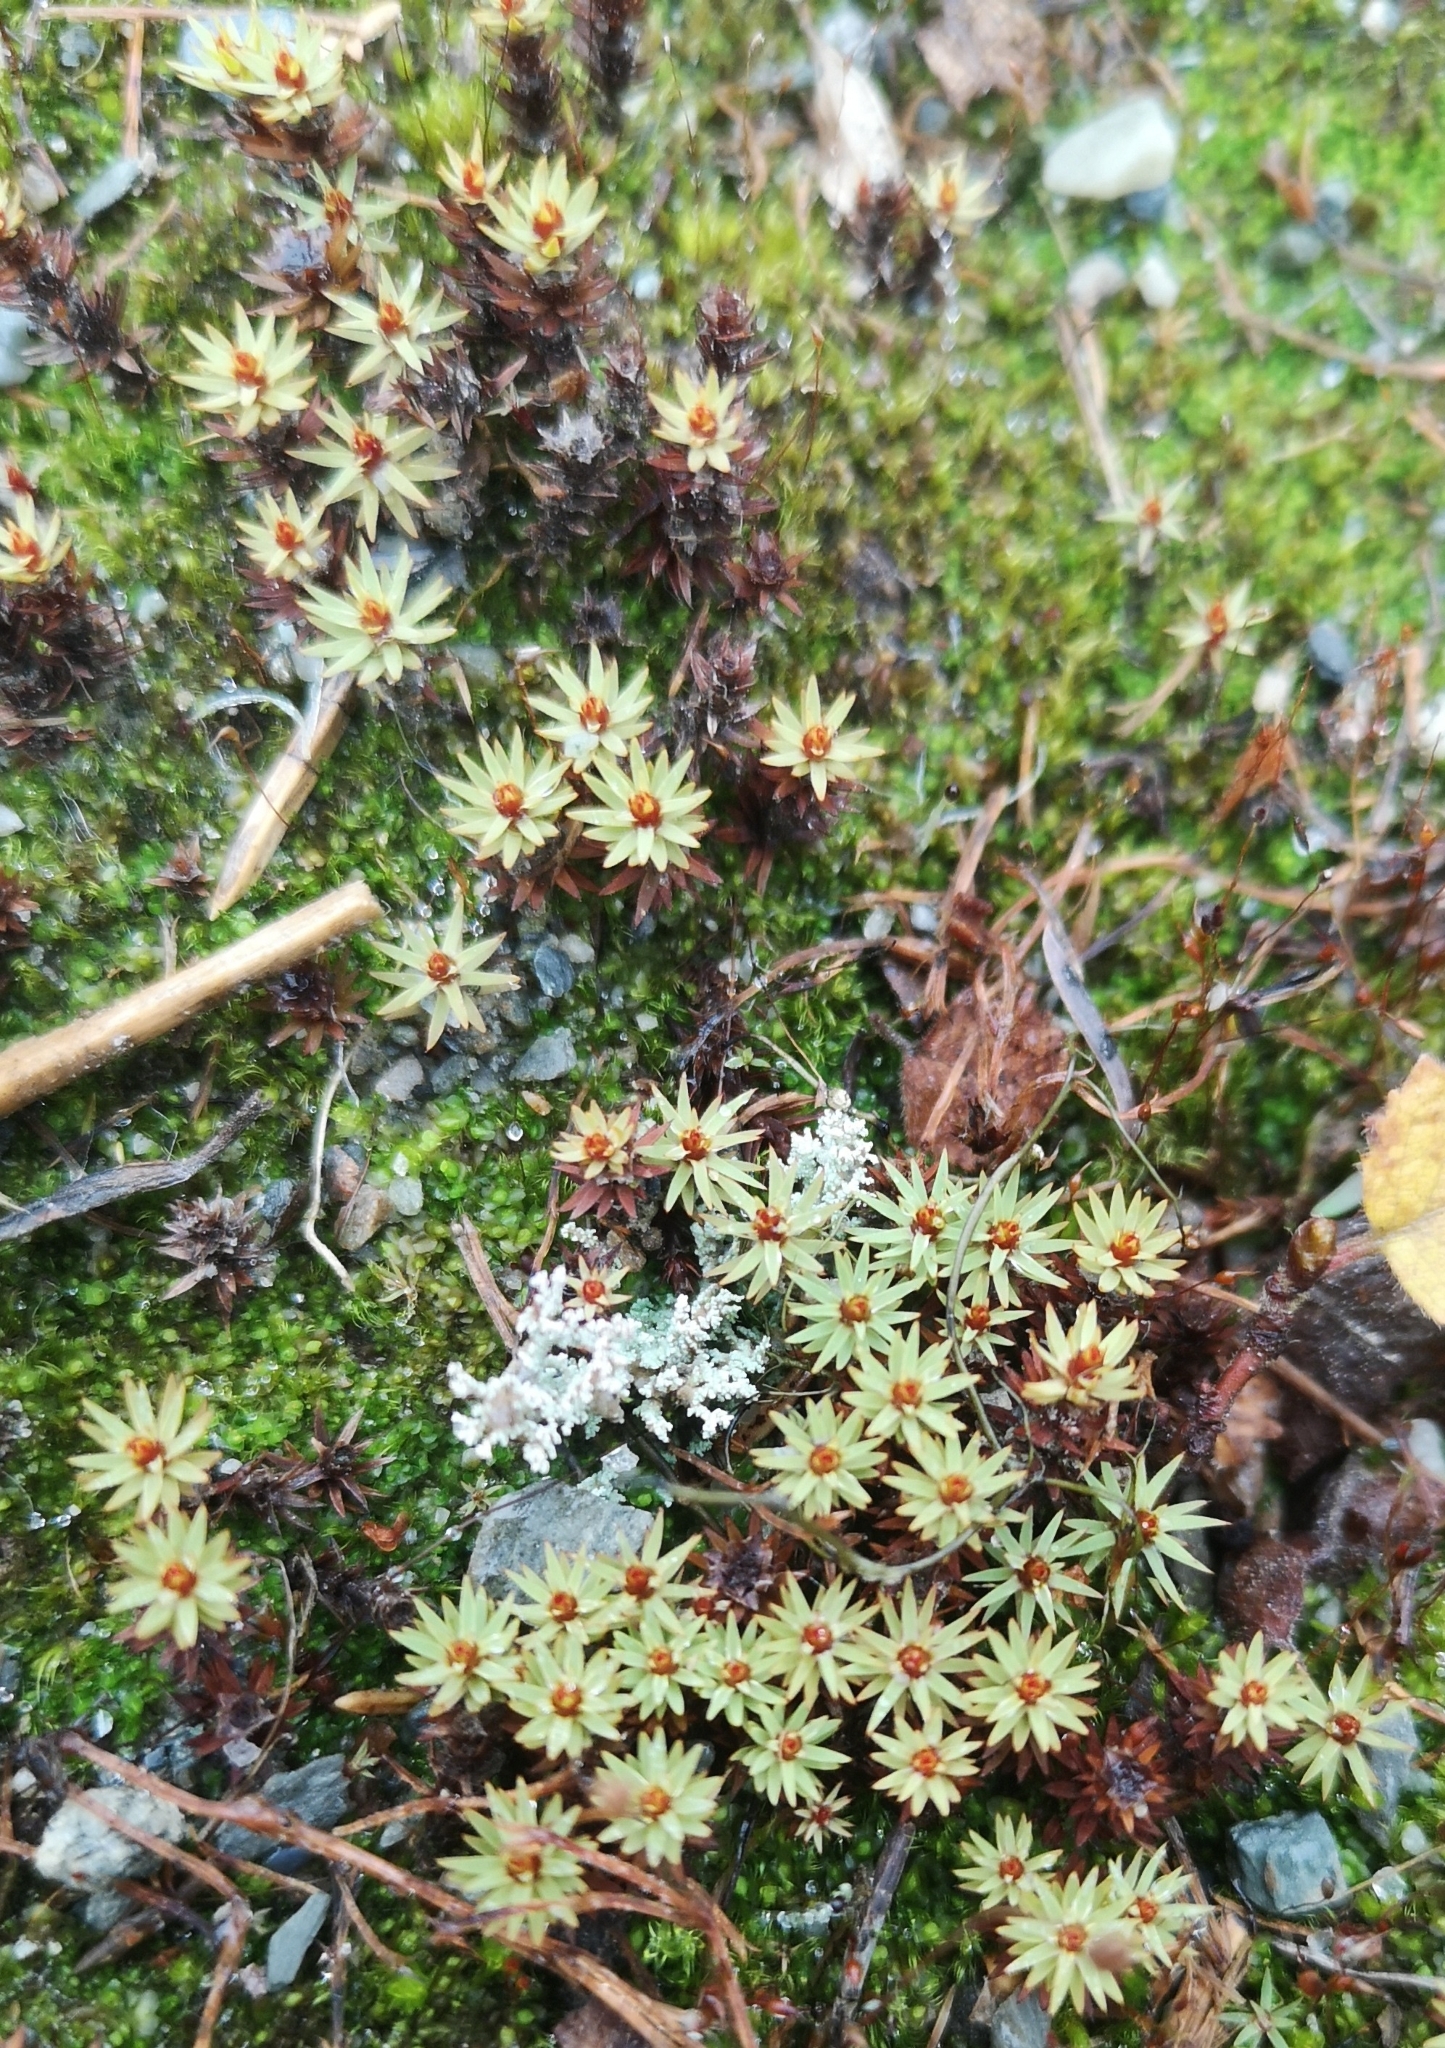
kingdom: Plantae
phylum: Bryophyta
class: Polytrichopsida
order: Polytrichales
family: Polytrichaceae
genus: Pogonatum
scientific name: Pogonatum urnigerum
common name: Urn hair moss
